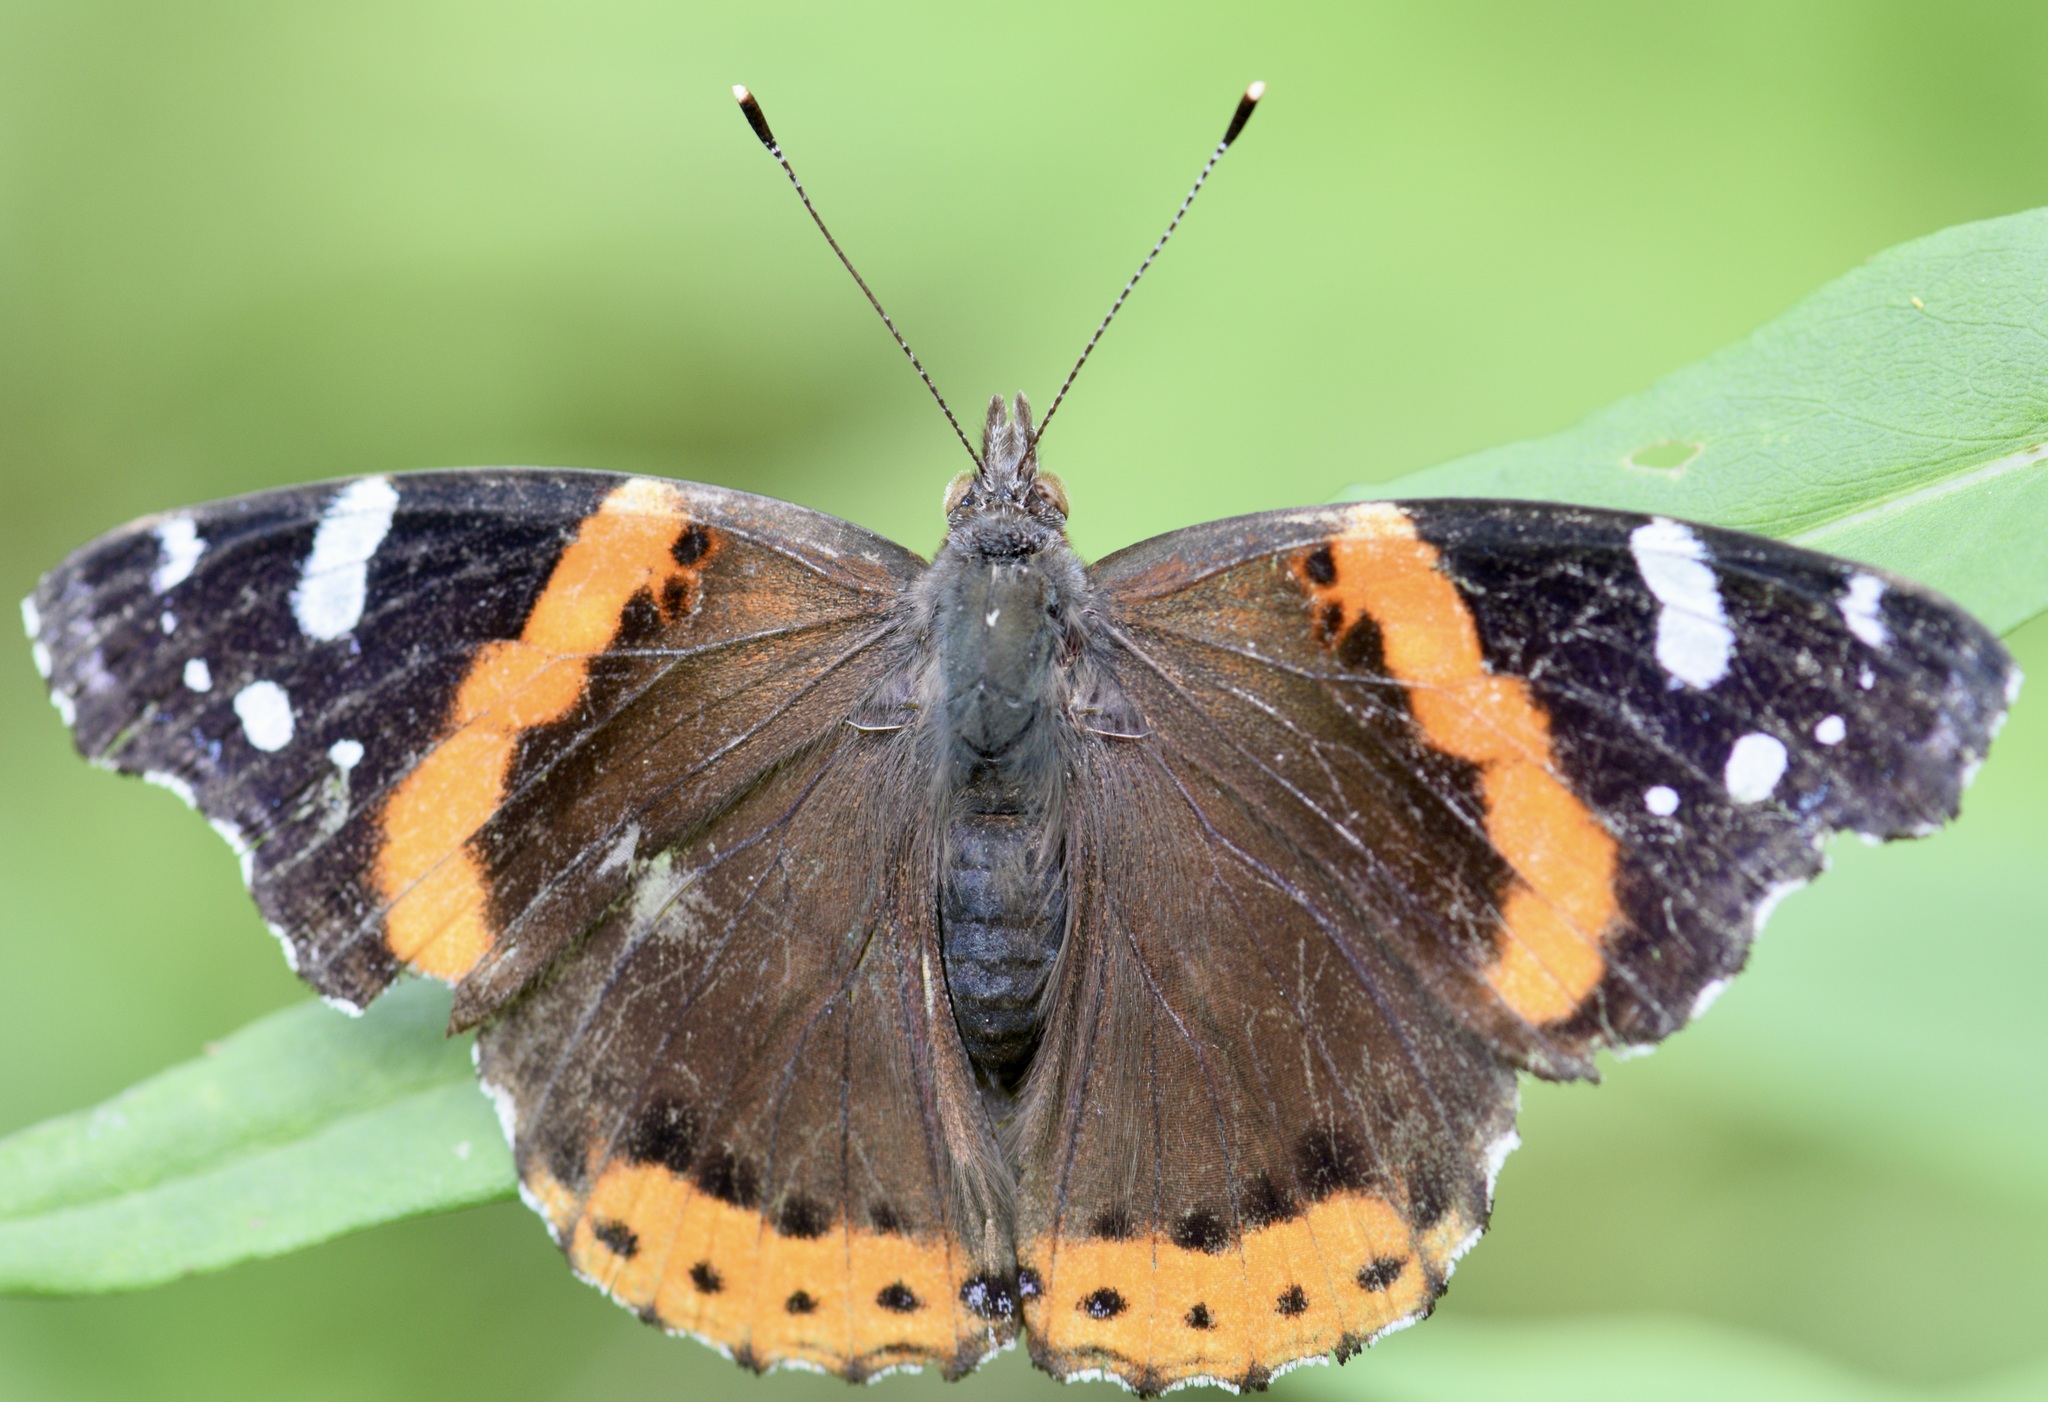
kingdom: Animalia
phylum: Arthropoda
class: Insecta
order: Lepidoptera
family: Nymphalidae
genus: Vanessa
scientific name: Vanessa atalanta
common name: Red admiral
